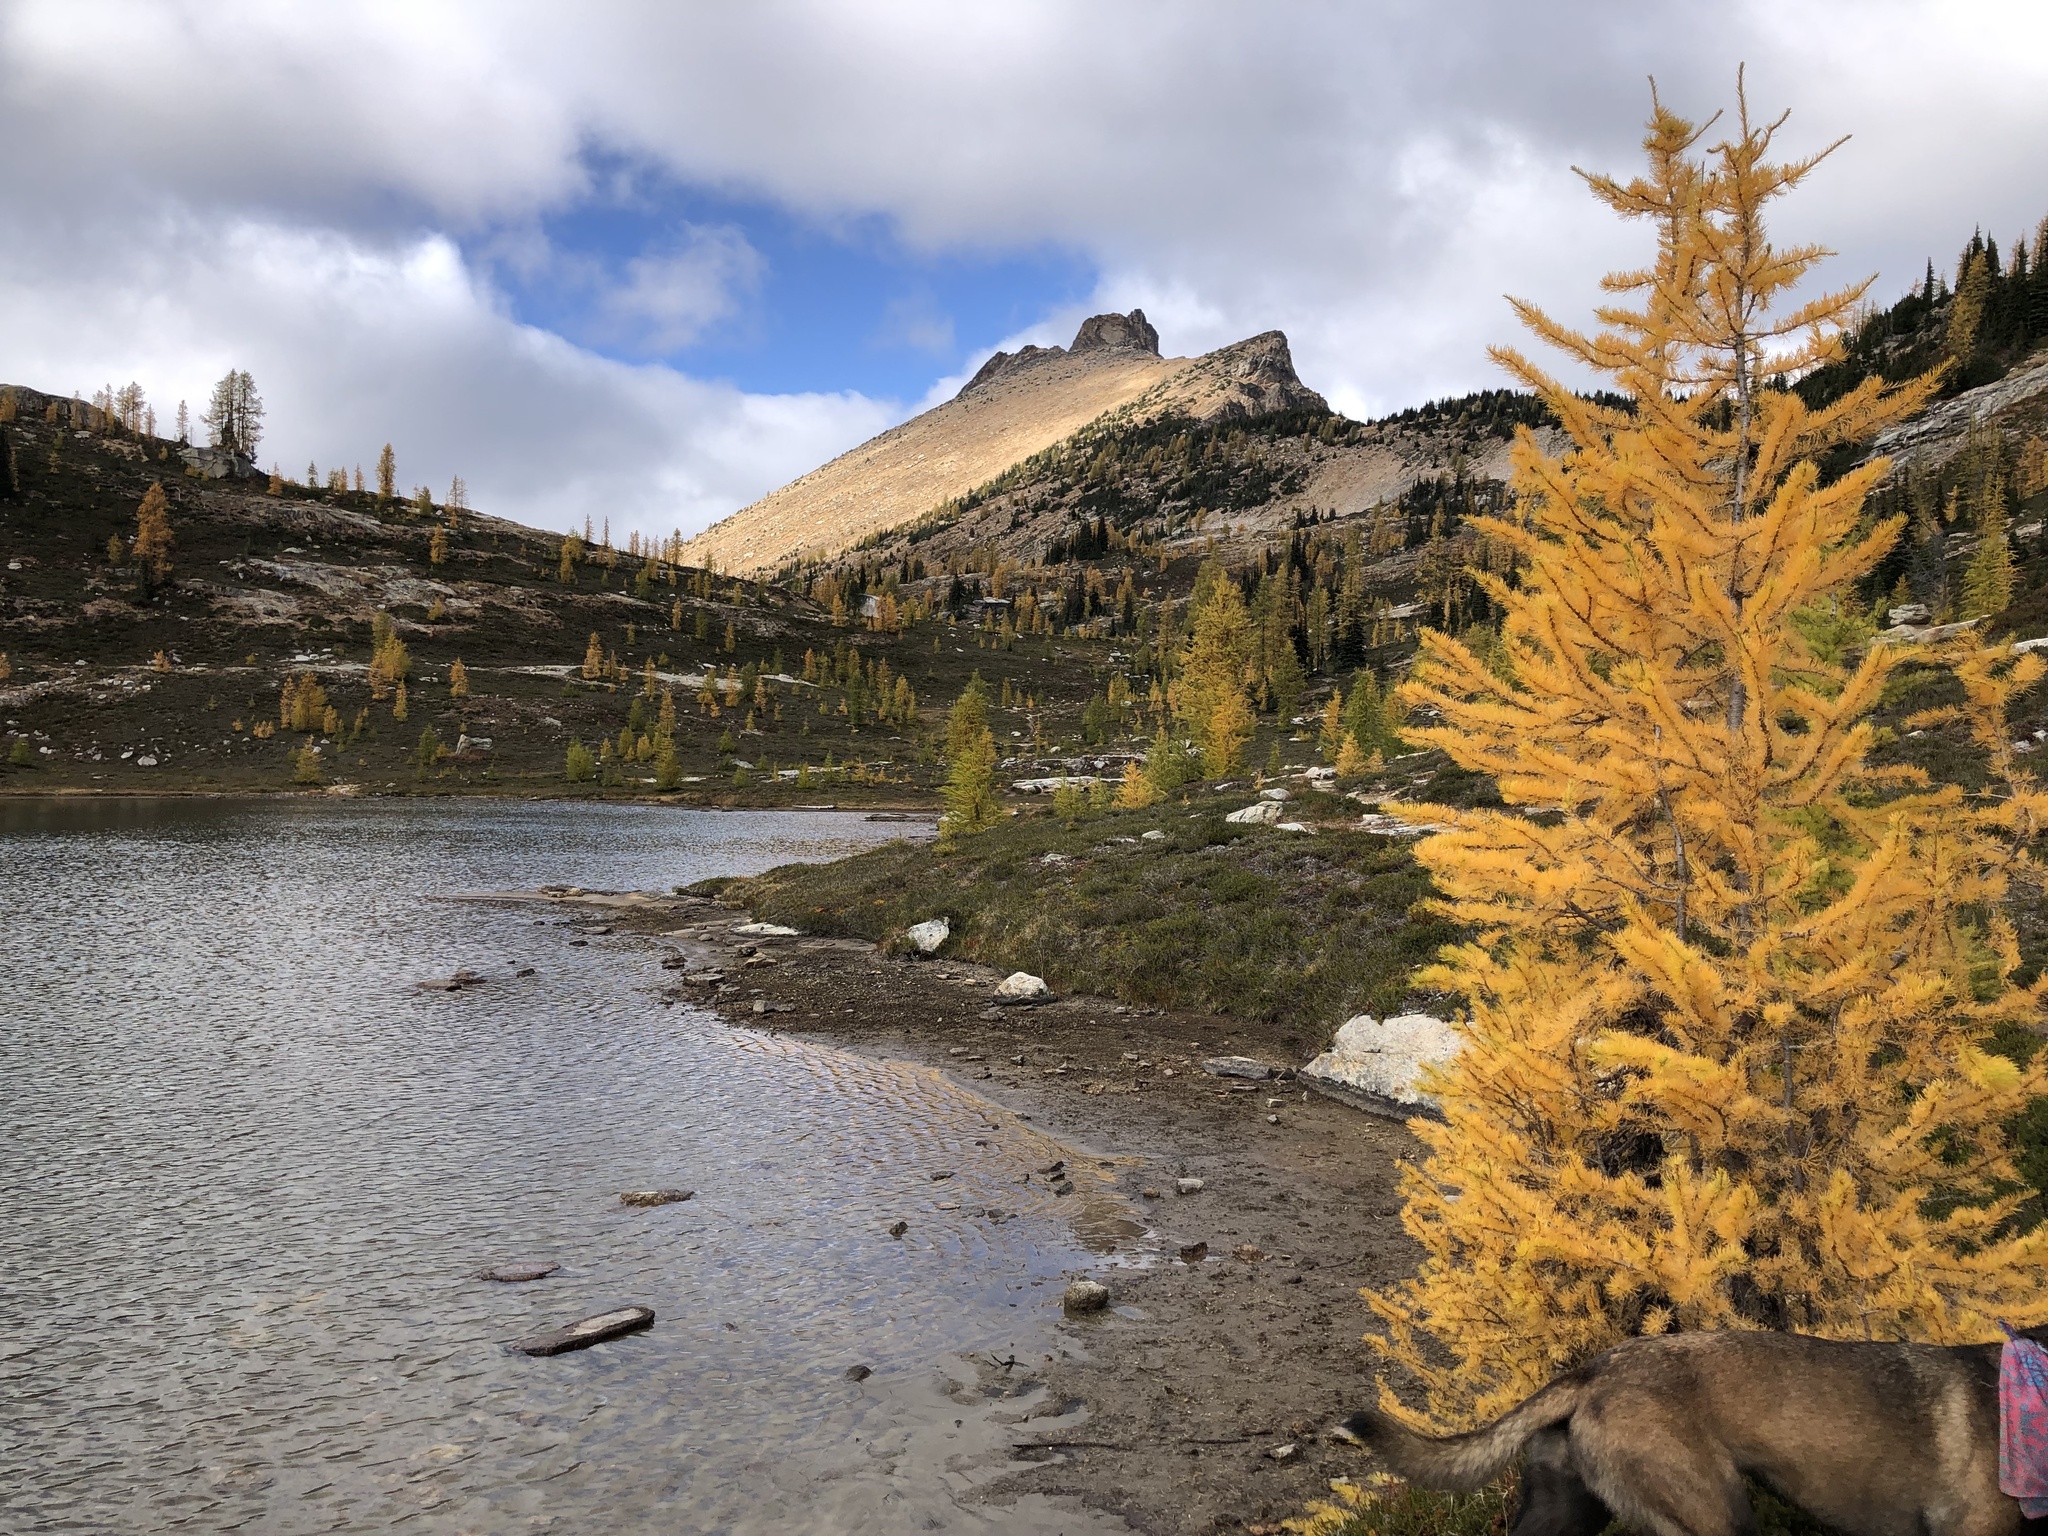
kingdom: Plantae
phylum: Tracheophyta
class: Pinopsida
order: Pinales
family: Pinaceae
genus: Larix
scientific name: Larix lyallii
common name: Alpine larch
